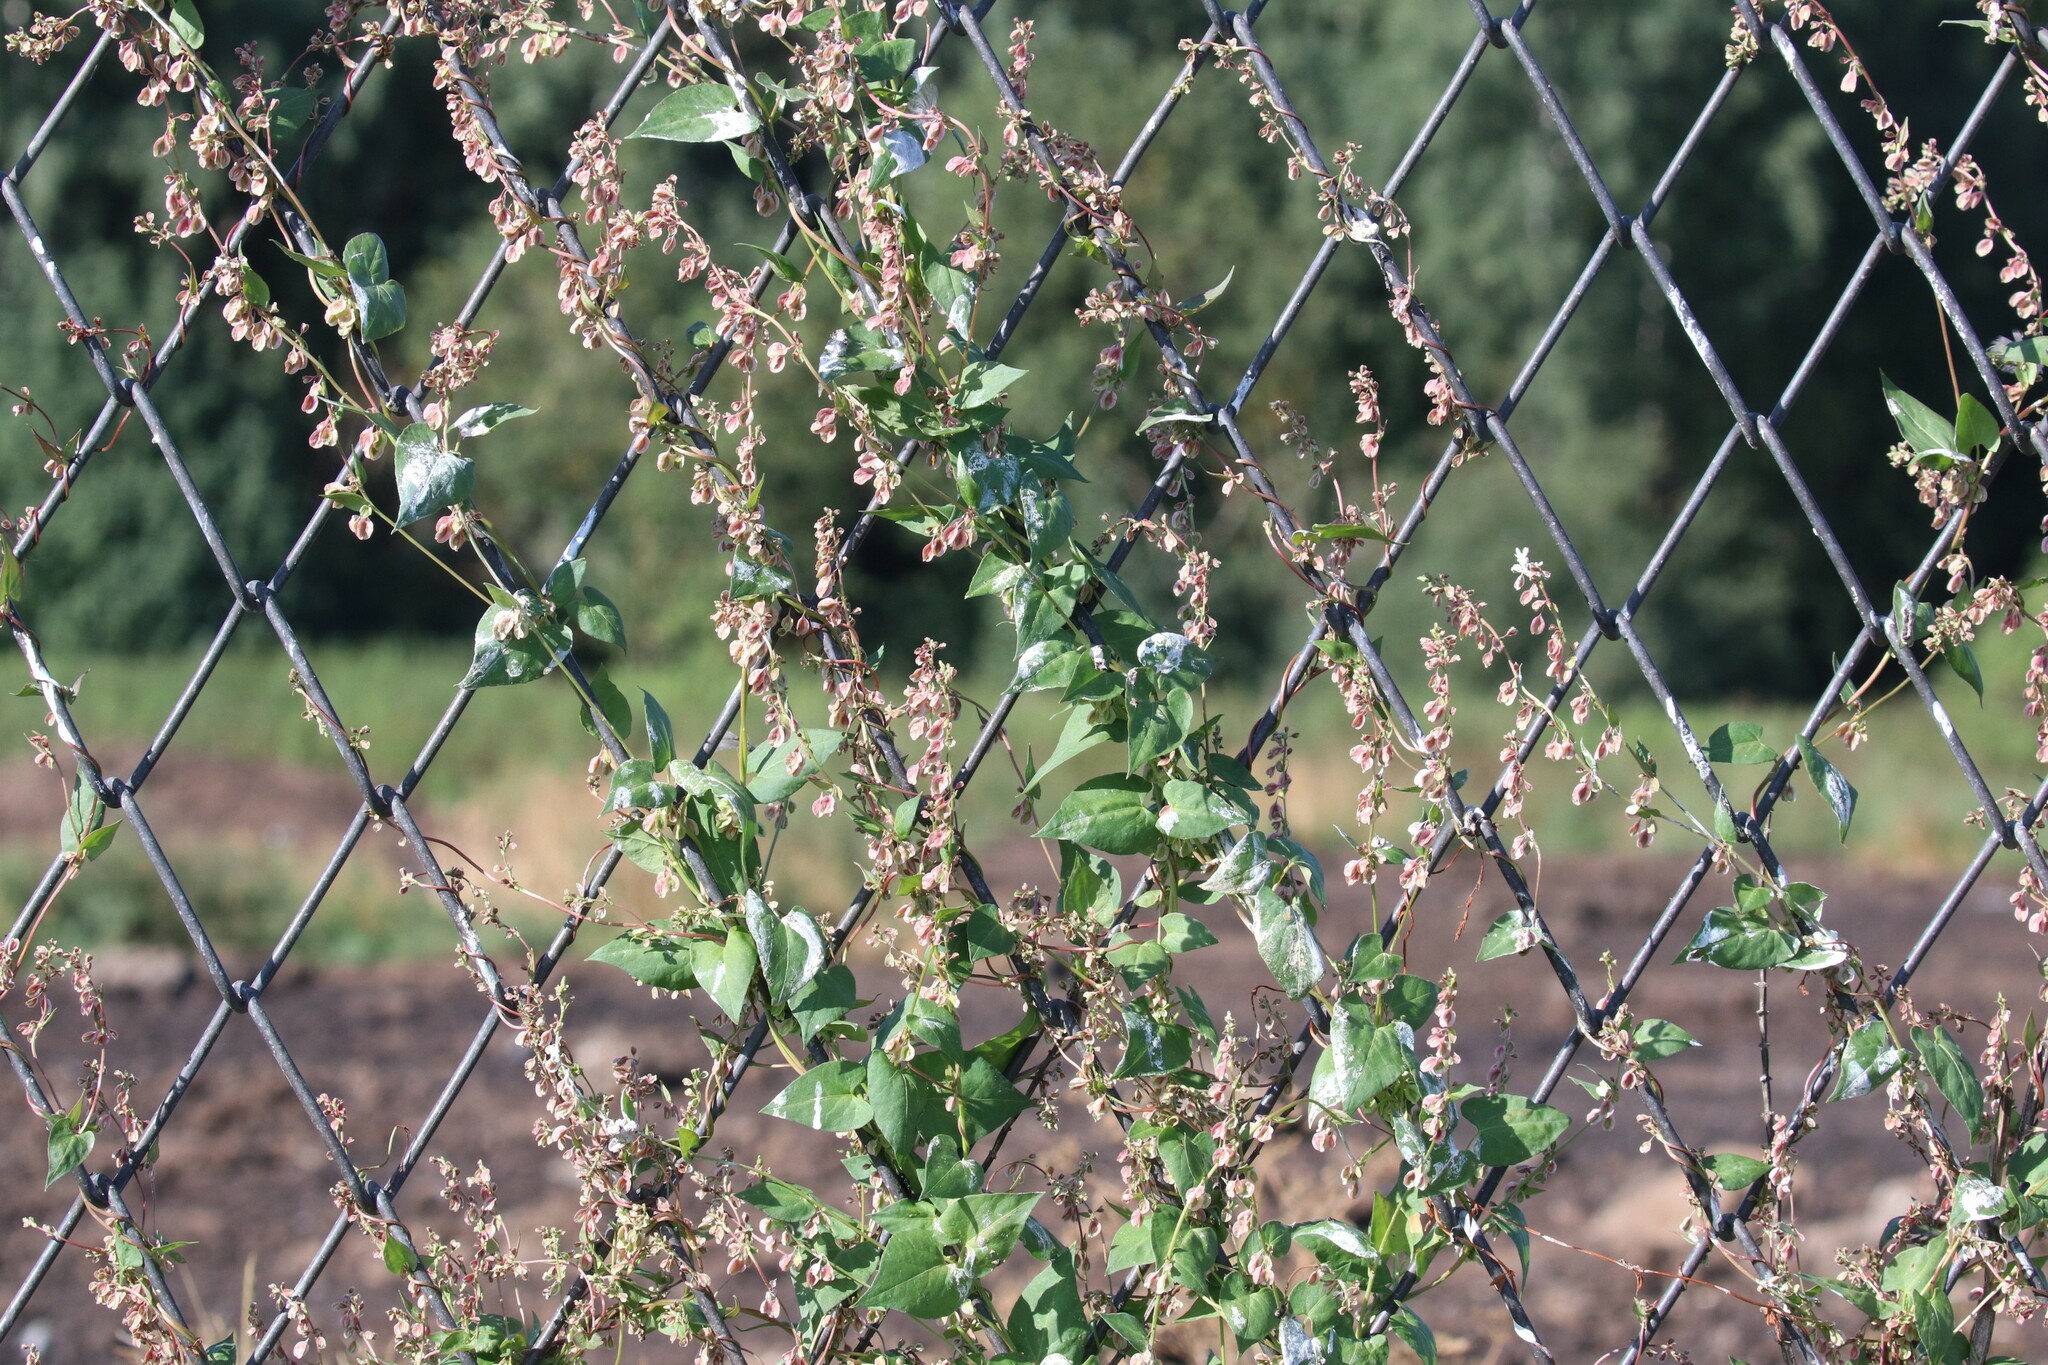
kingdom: Plantae
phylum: Tracheophyta
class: Magnoliopsida
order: Caryophyllales
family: Polygonaceae
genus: Fallopia
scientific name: Fallopia dumetorum
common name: Copse-bindweed
